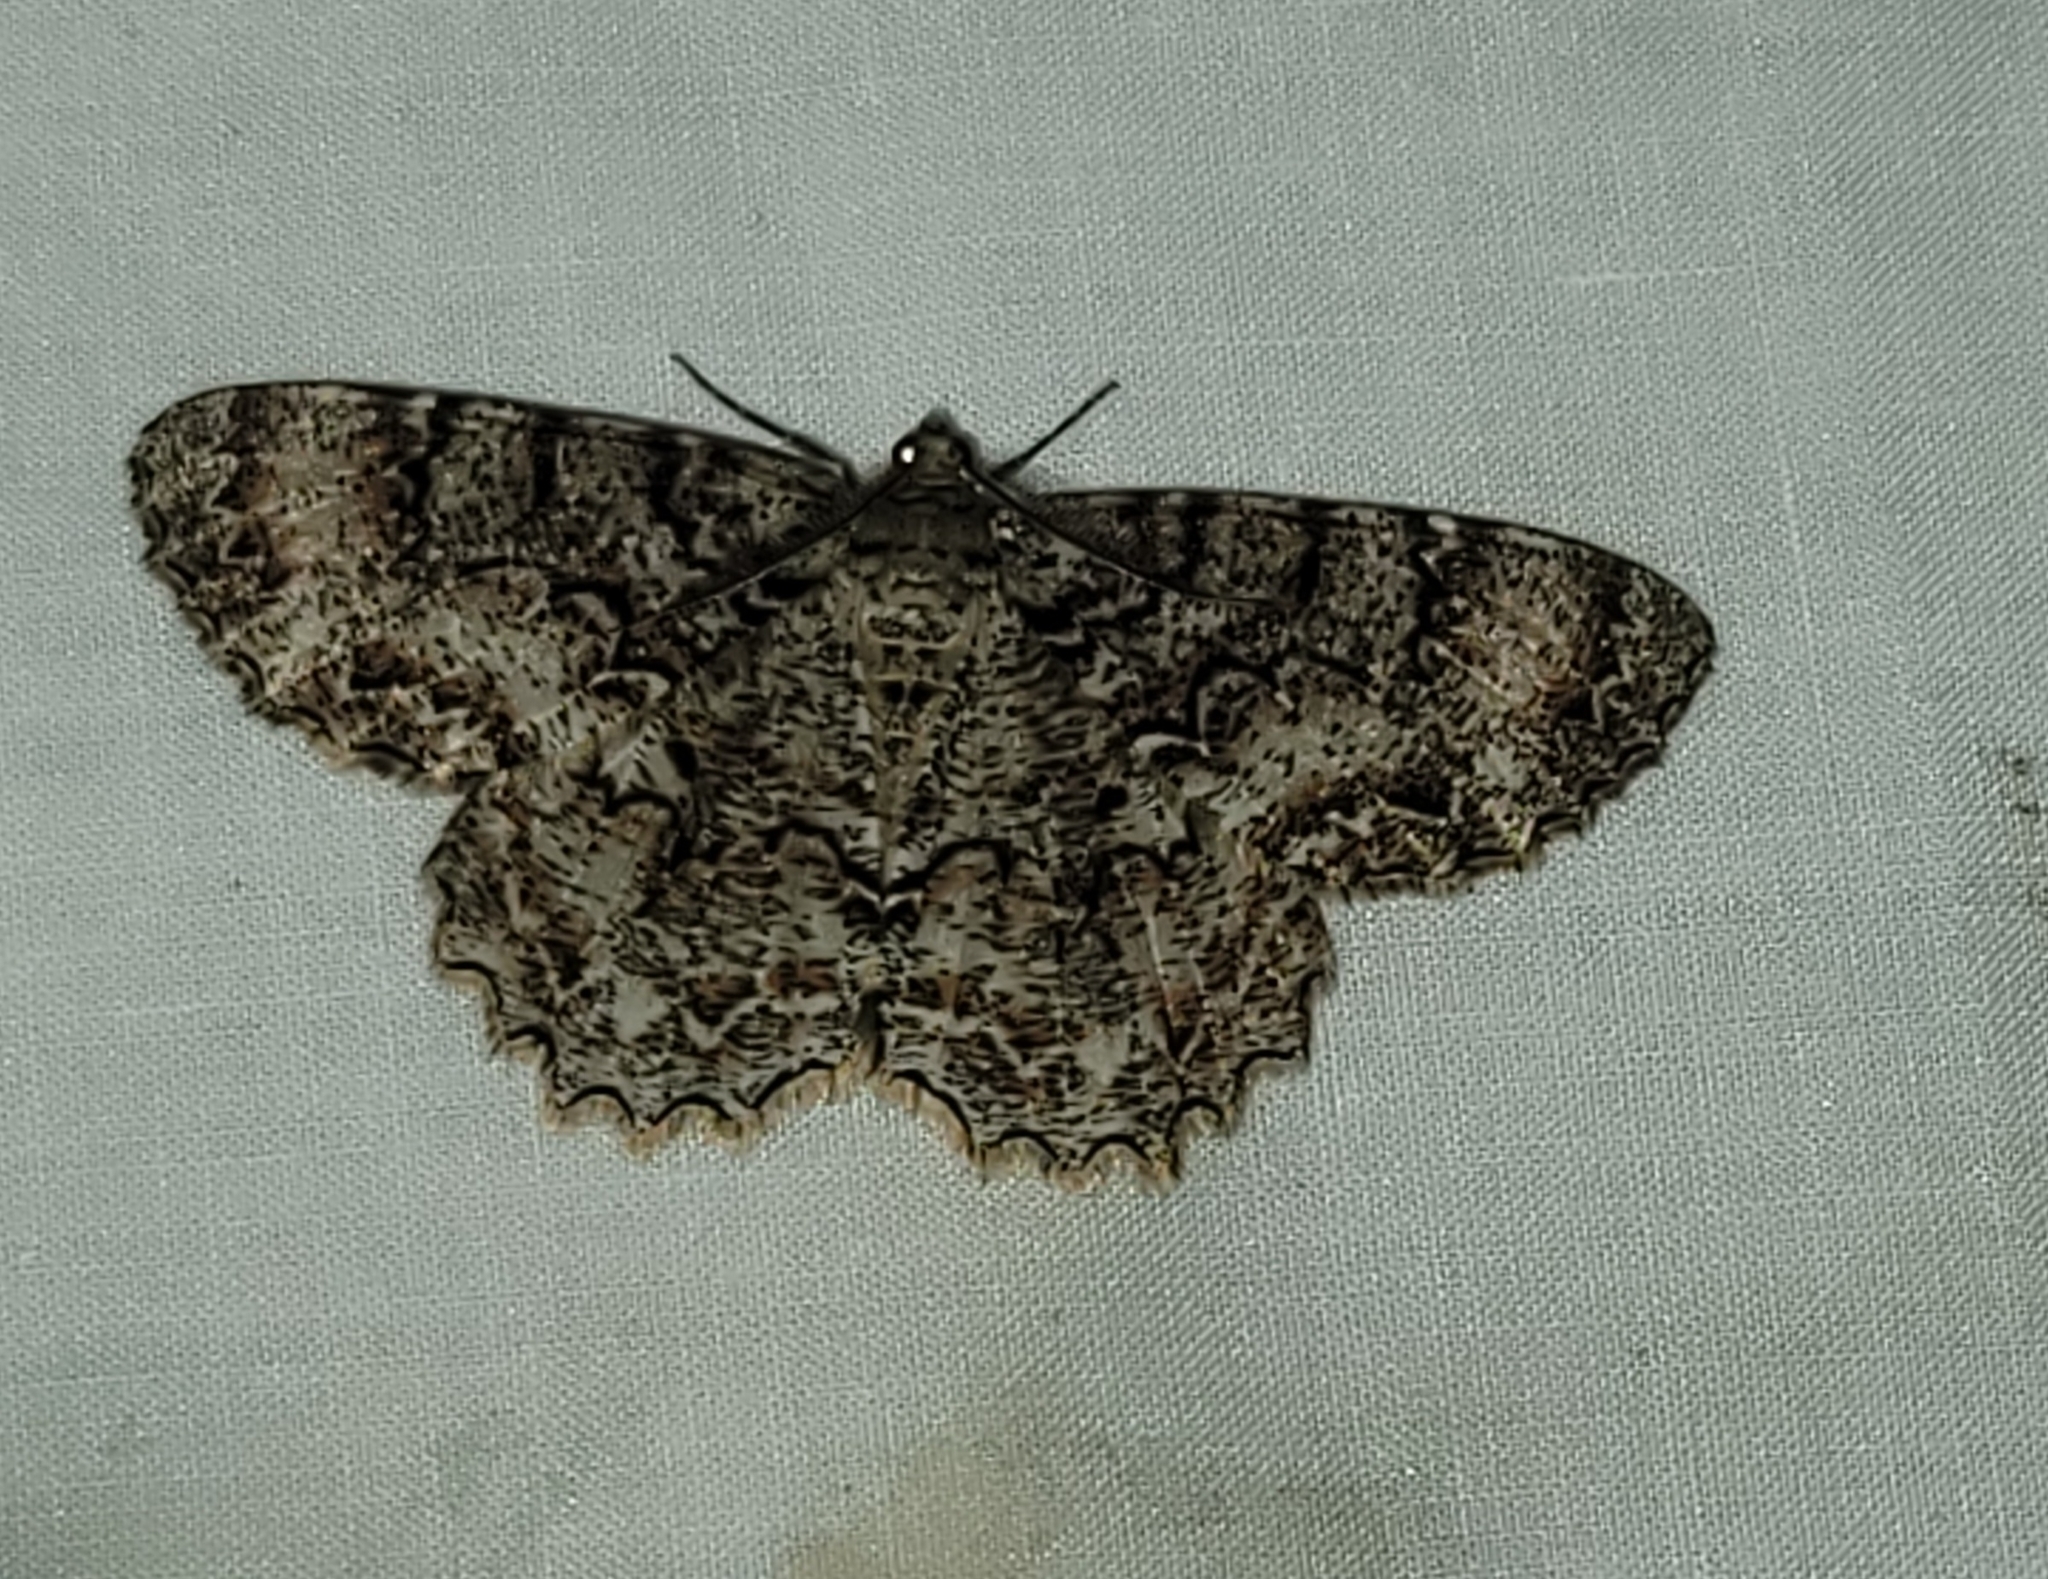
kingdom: Animalia
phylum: Arthropoda
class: Insecta
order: Lepidoptera
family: Geometridae
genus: Epimecis
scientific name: Epimecis hortaria
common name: Tulip-tree beauty
